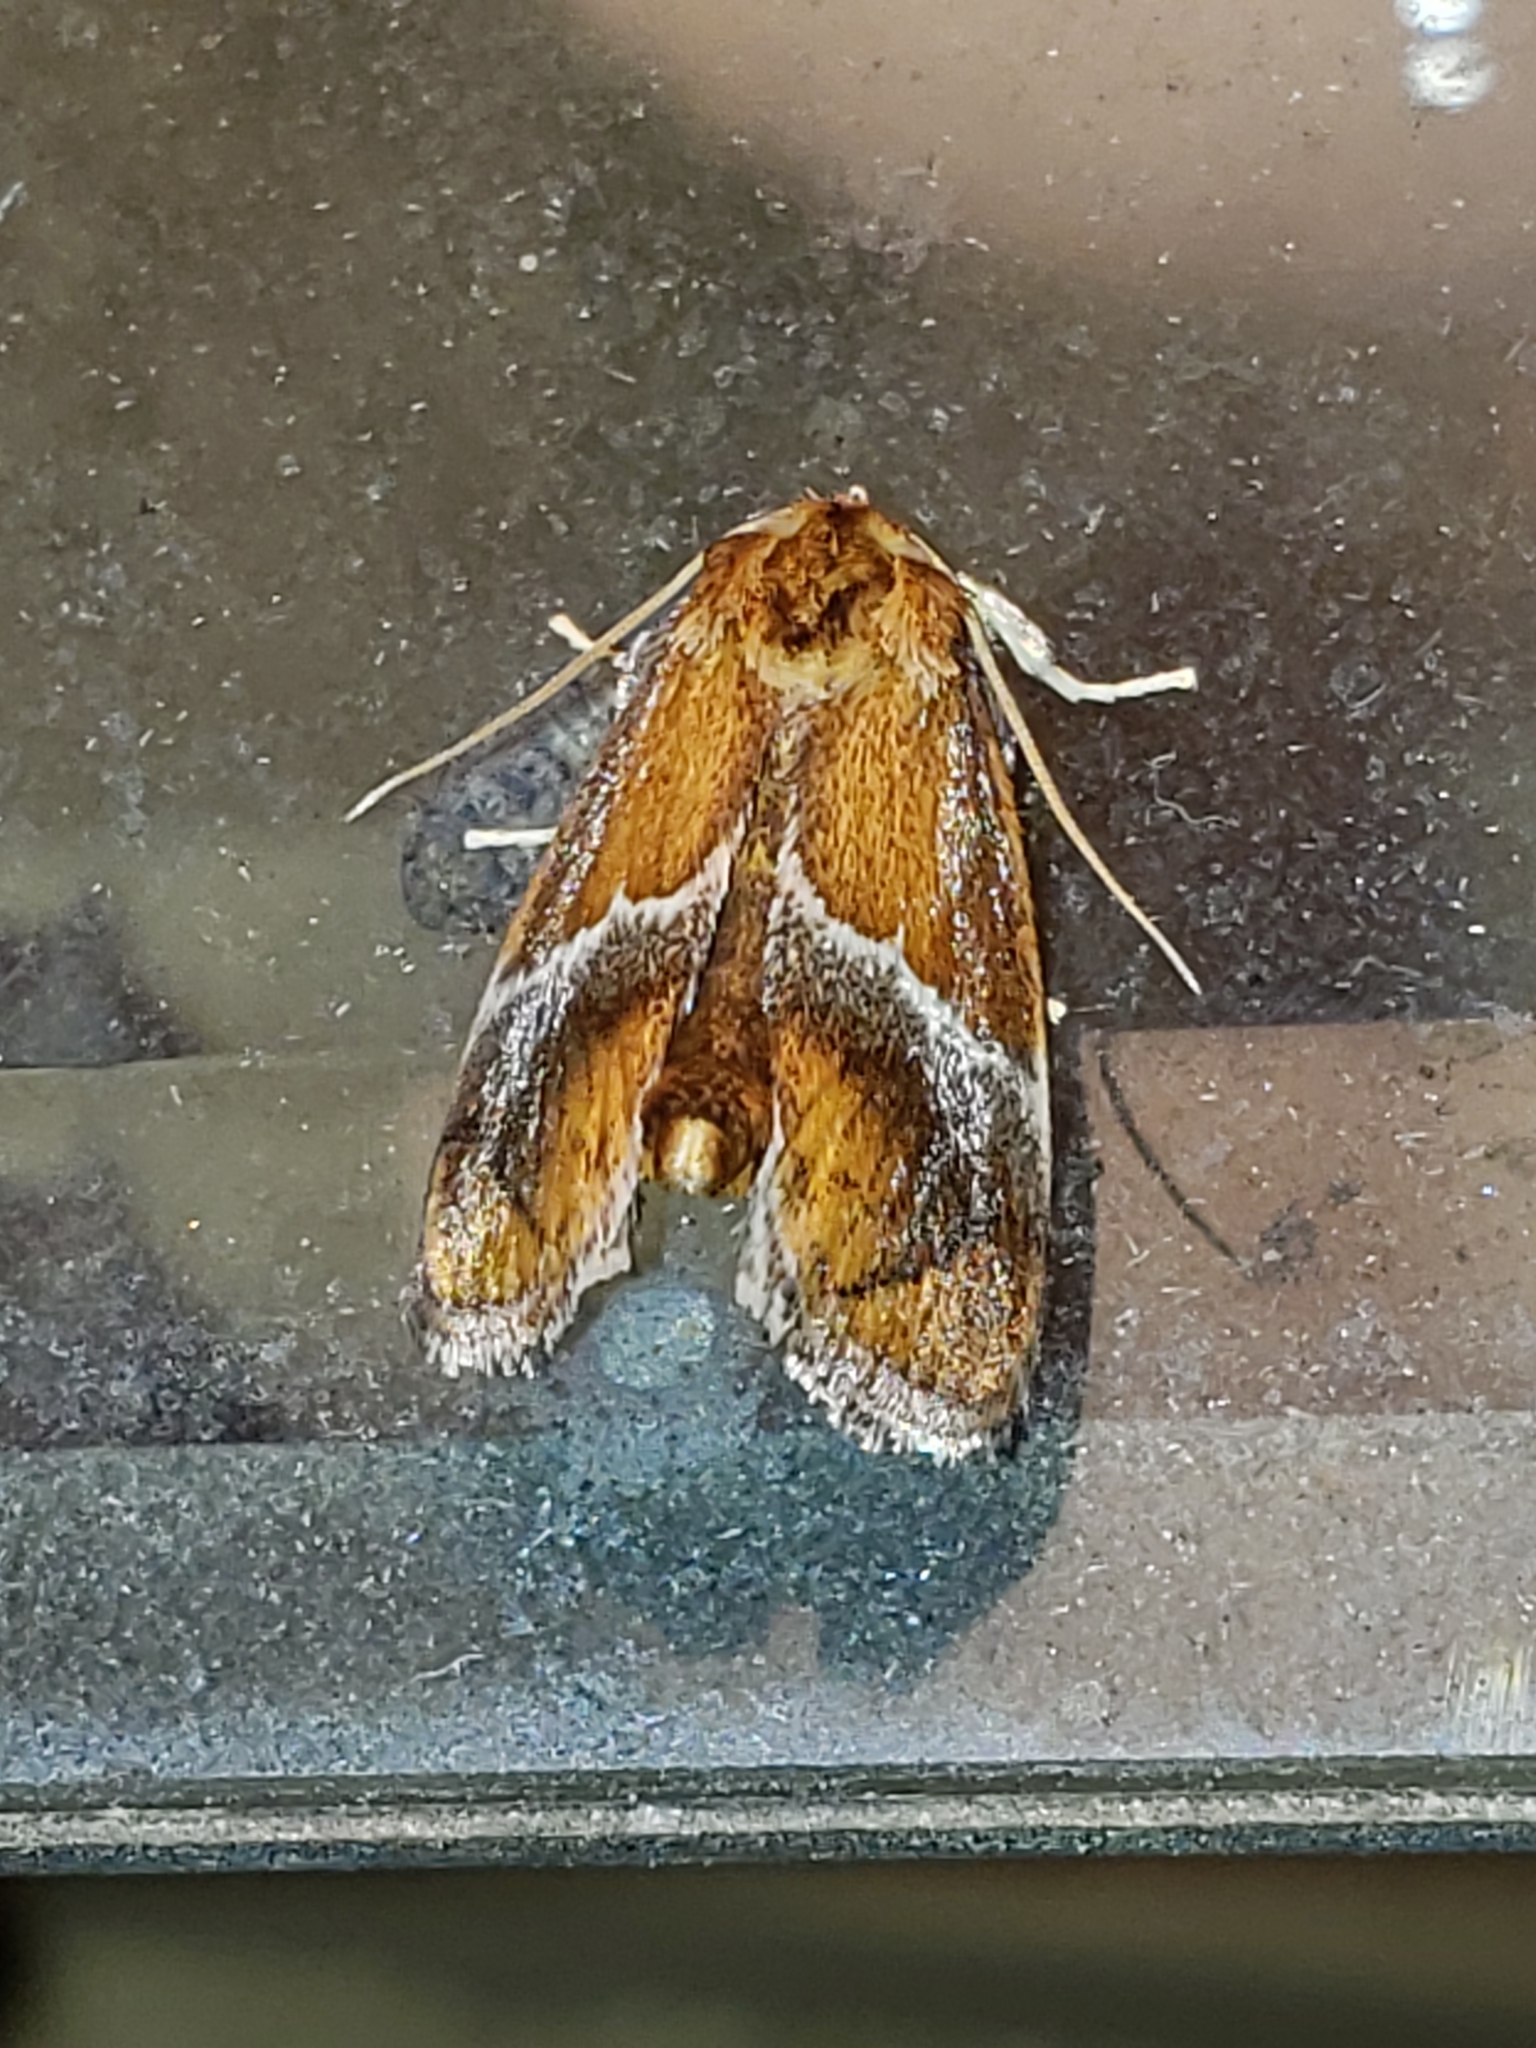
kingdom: Animalia
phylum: Arthropoda
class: Insecta
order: Lepidoptera
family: Limacodidae
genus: Lithacodes
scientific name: Lithacodes fasciola
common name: Yellow-shouldered slug moth
